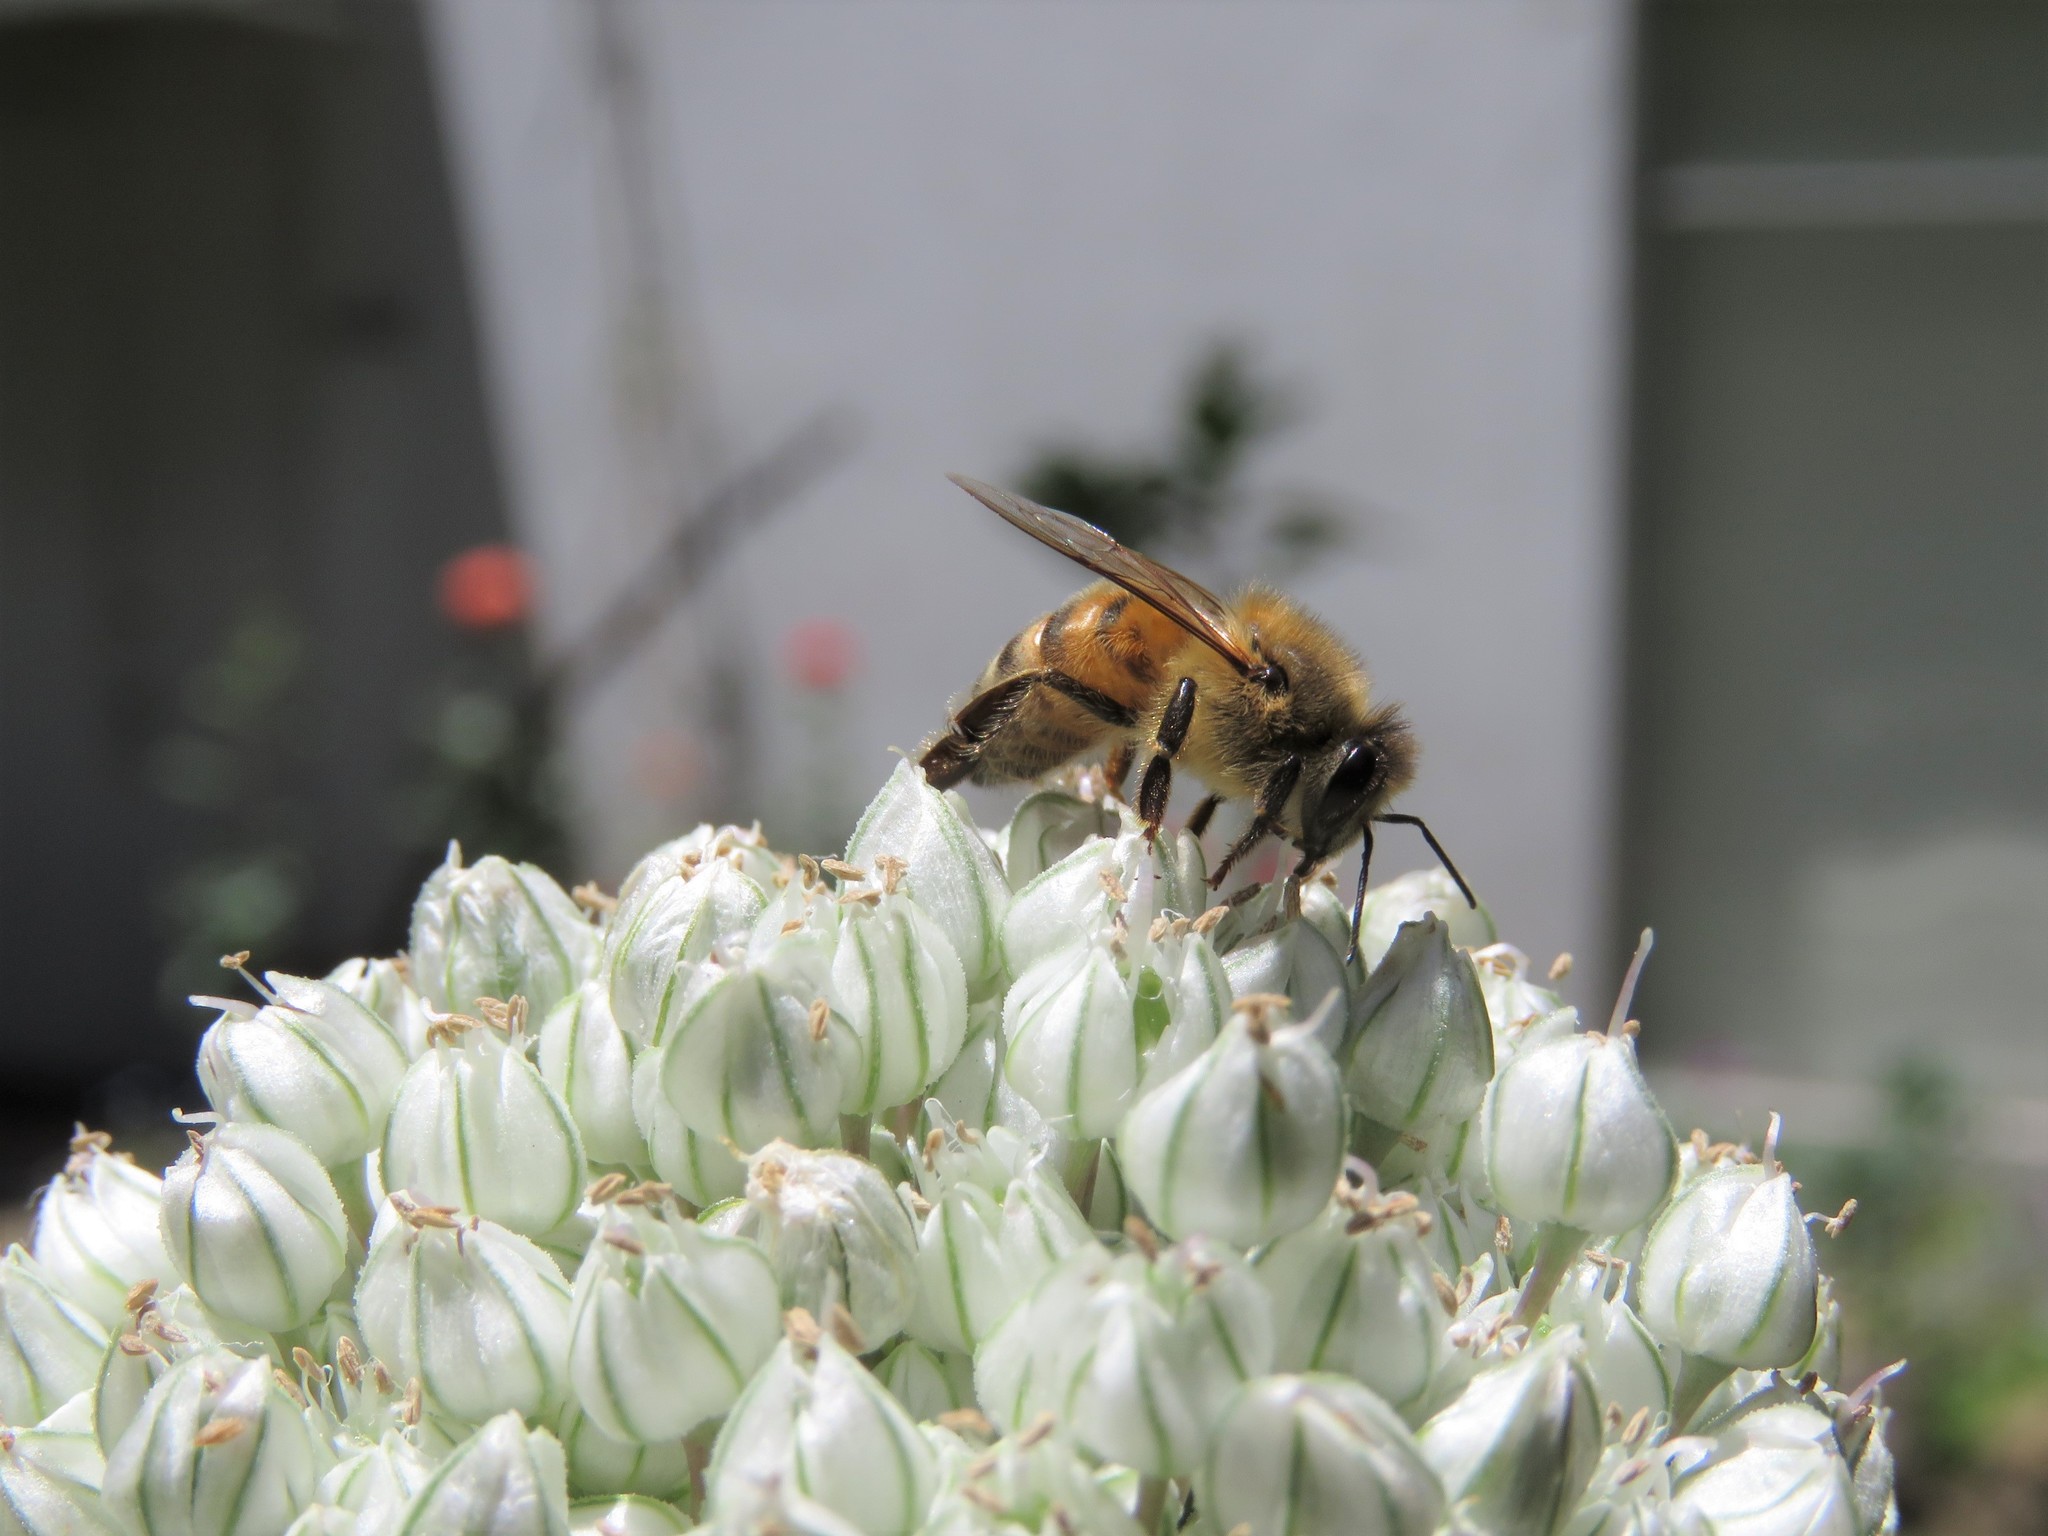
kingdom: Animalia
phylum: Arthropoda
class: Insecta
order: Hymenoptera
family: Apidae
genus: Apis
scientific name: Apis mellifera
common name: Honey bee
